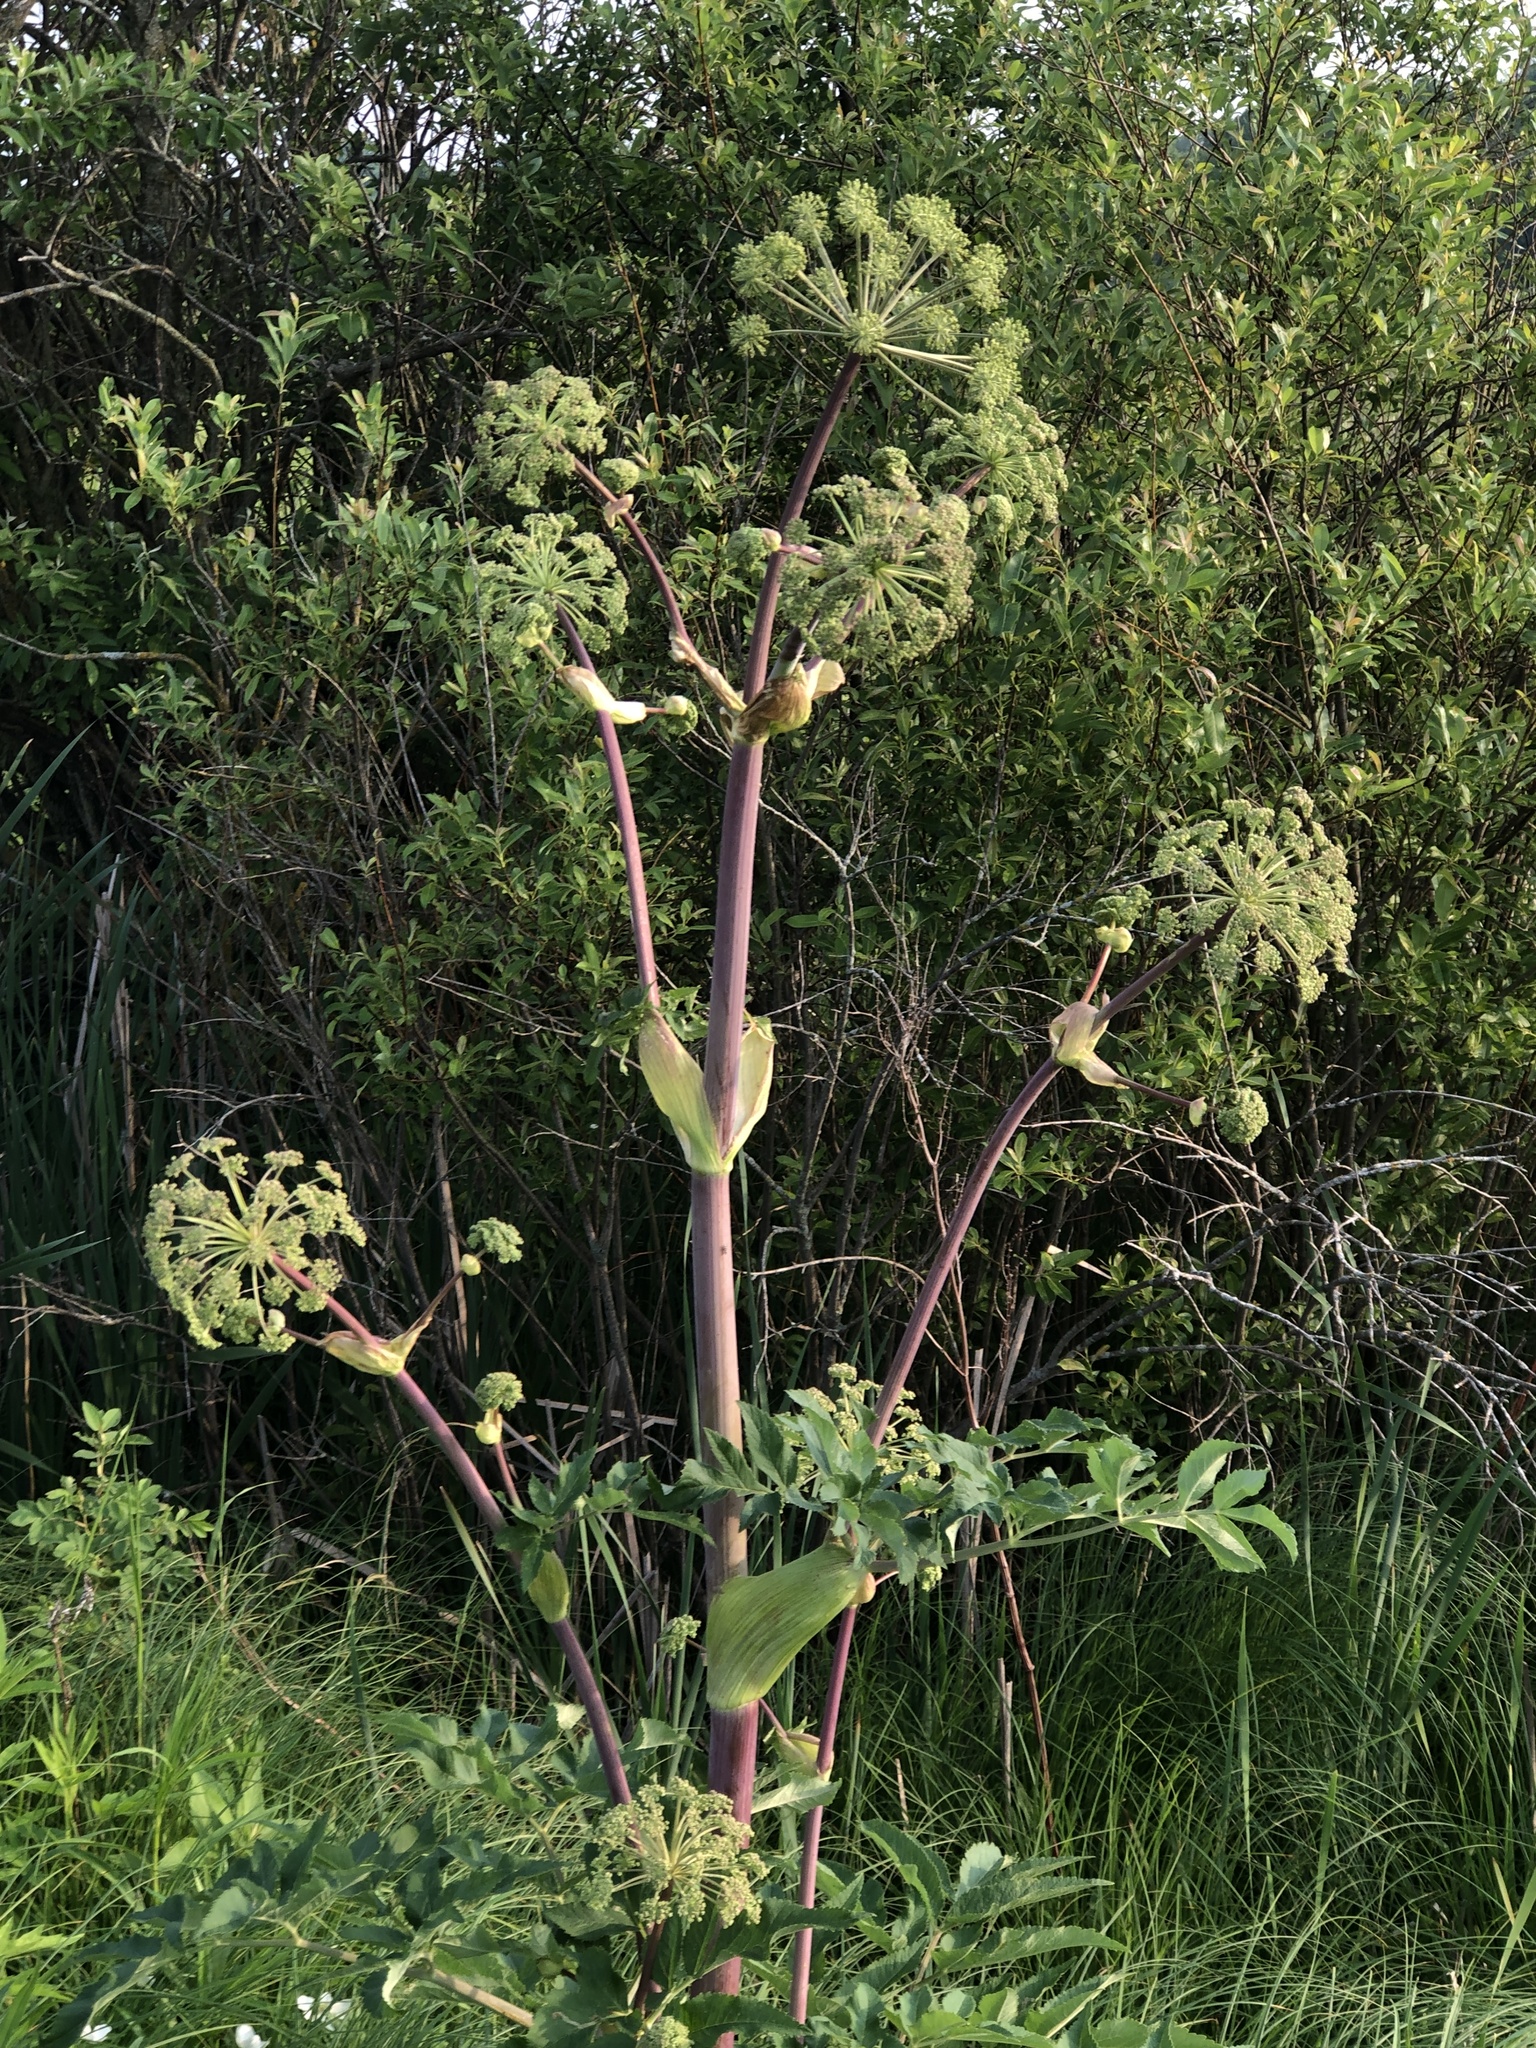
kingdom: Plantae
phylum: Tracheophyta
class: Magnoliopsida
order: Apiales
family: Apiaceae
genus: Angelica
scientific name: Angelica atropurpurea
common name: Great angelica
